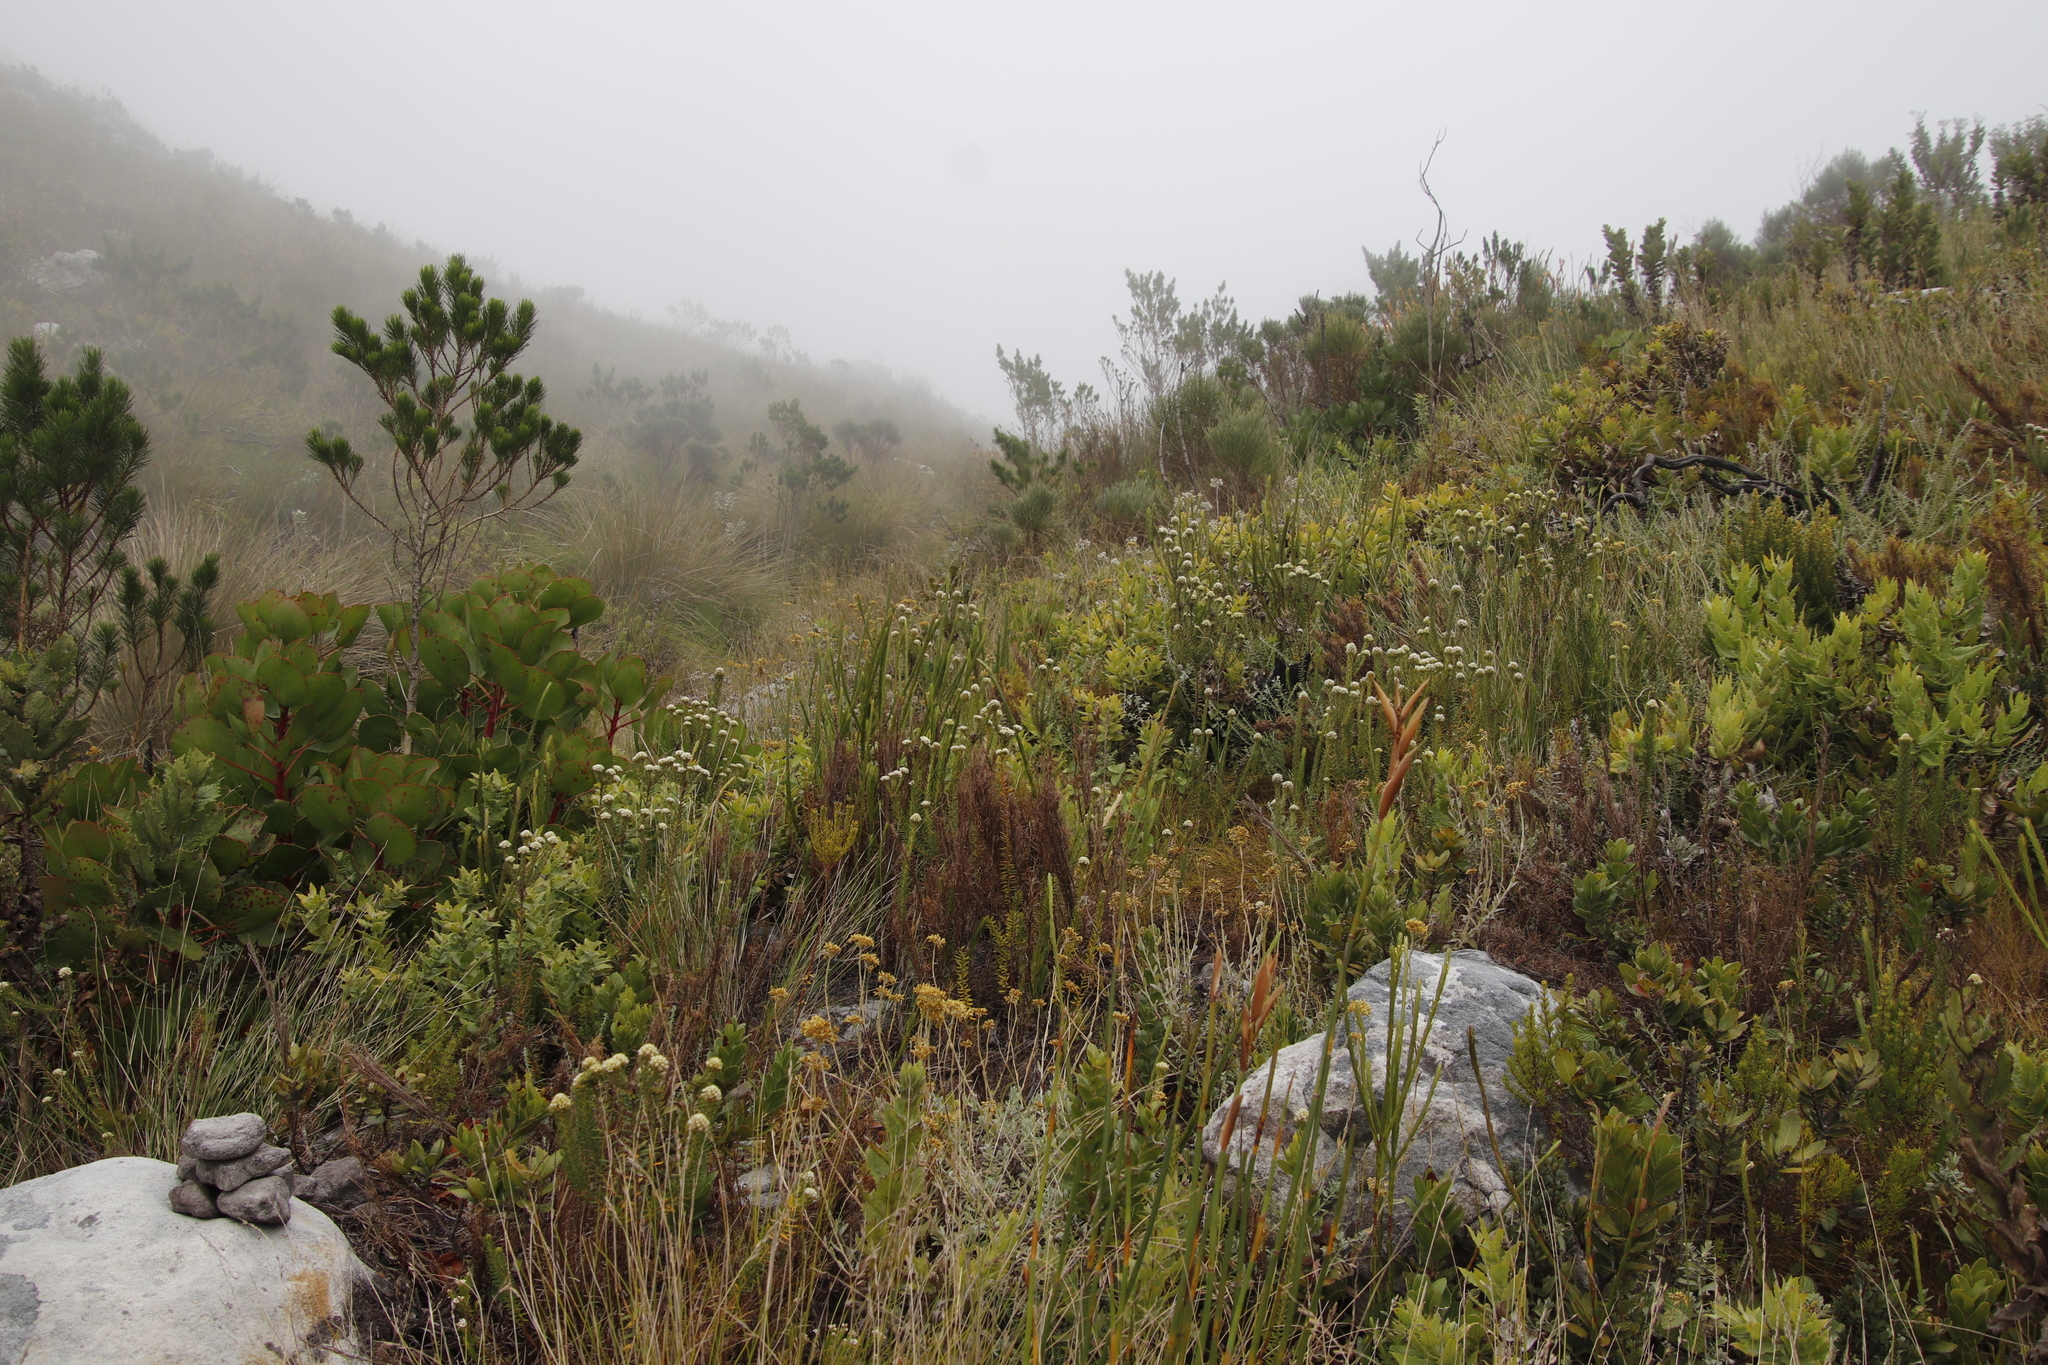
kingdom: Plantae
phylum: Tracheophyta
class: Magnoliopsida
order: Rosales
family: Rhamnaceae
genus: Phylica
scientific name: Phylica strigosa
